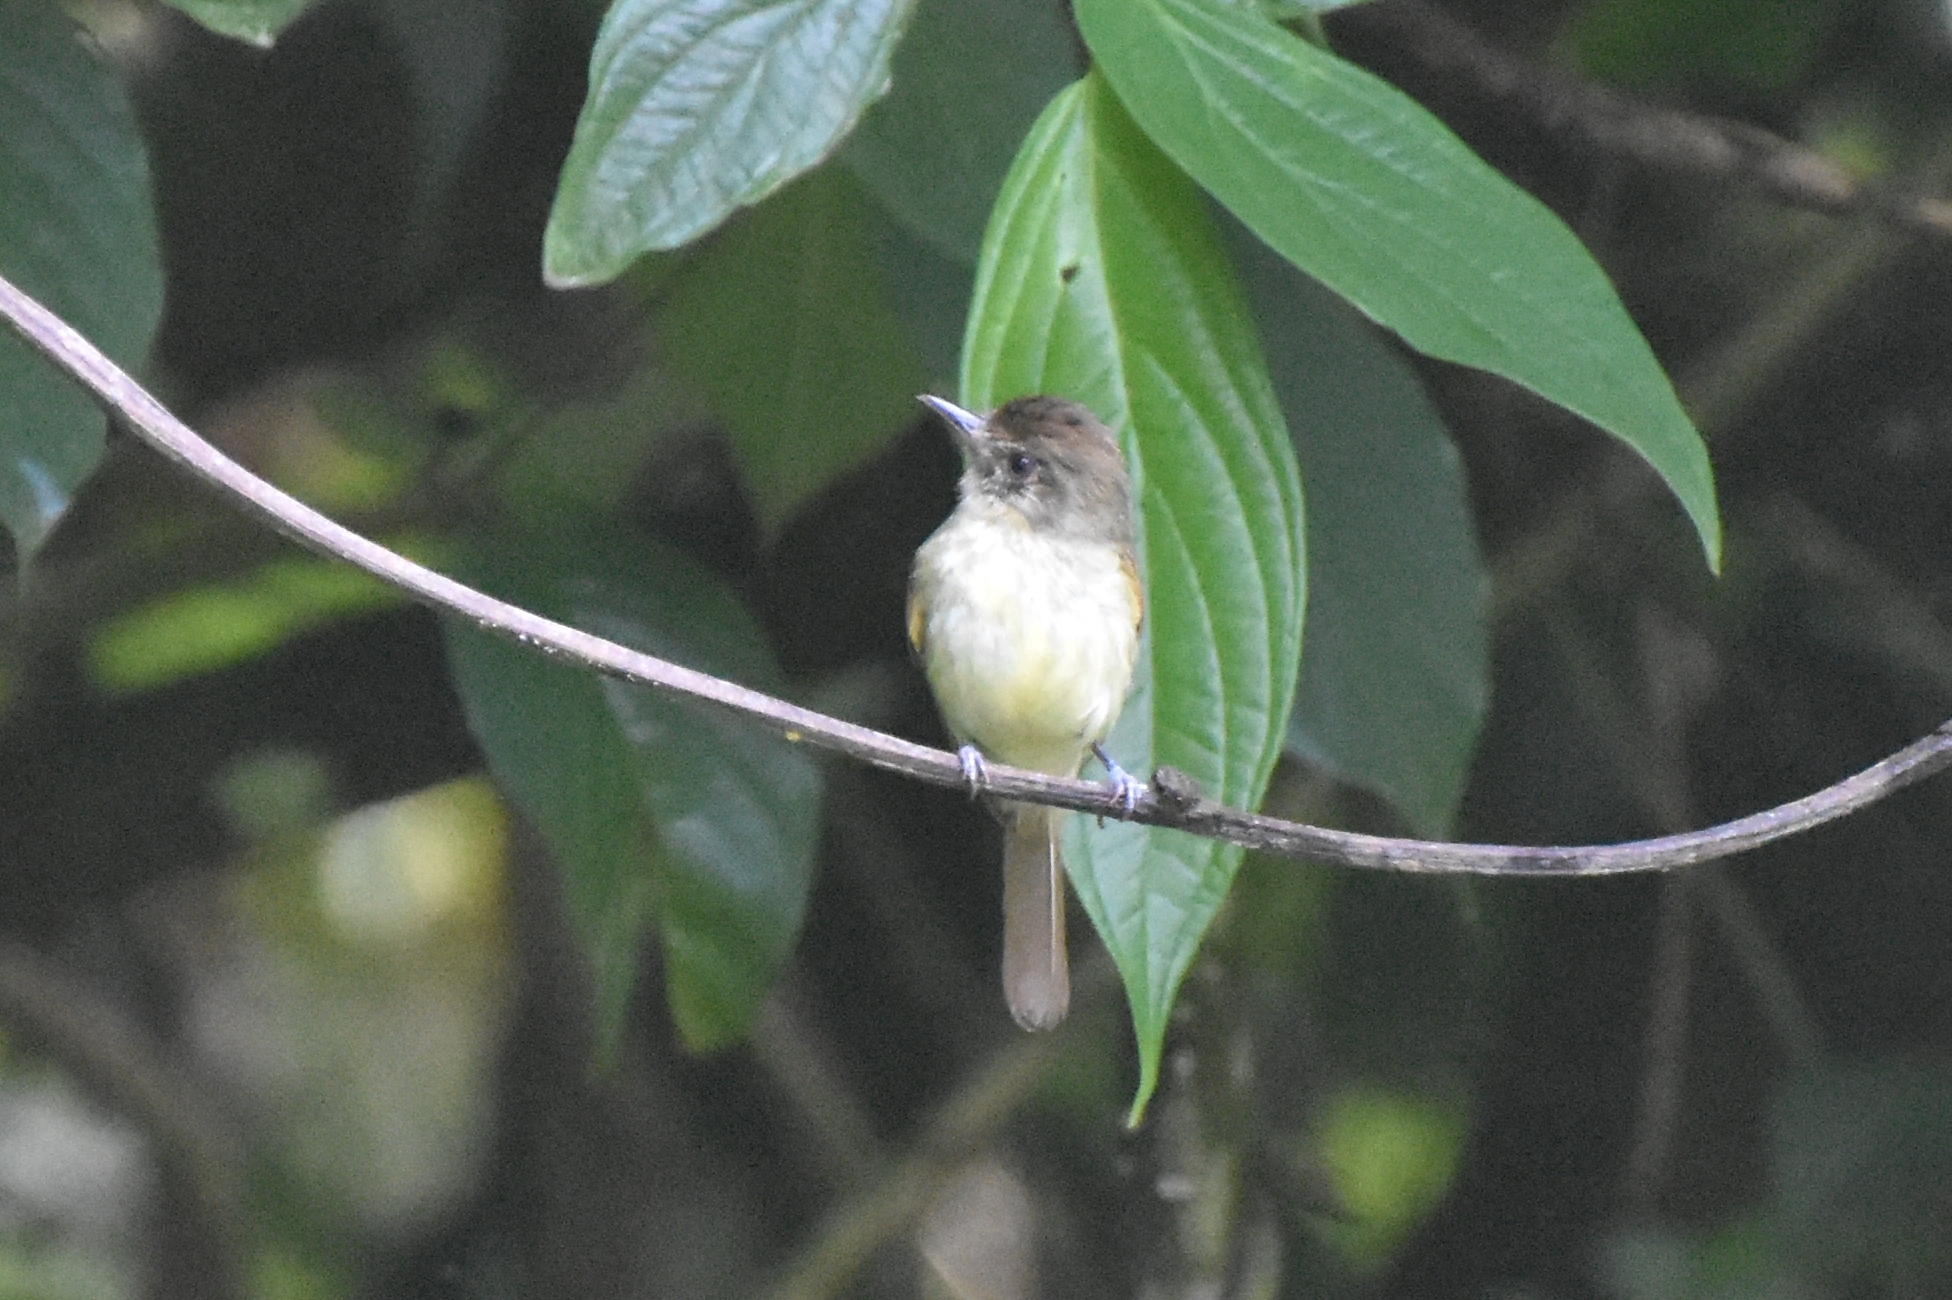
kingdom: Animalia
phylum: Chordata
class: Aves
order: Passeriformes
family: Tyrannidae
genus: Leptopogon
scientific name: Leptopogon amaurocephalus
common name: Sepia-capped flycatcher
